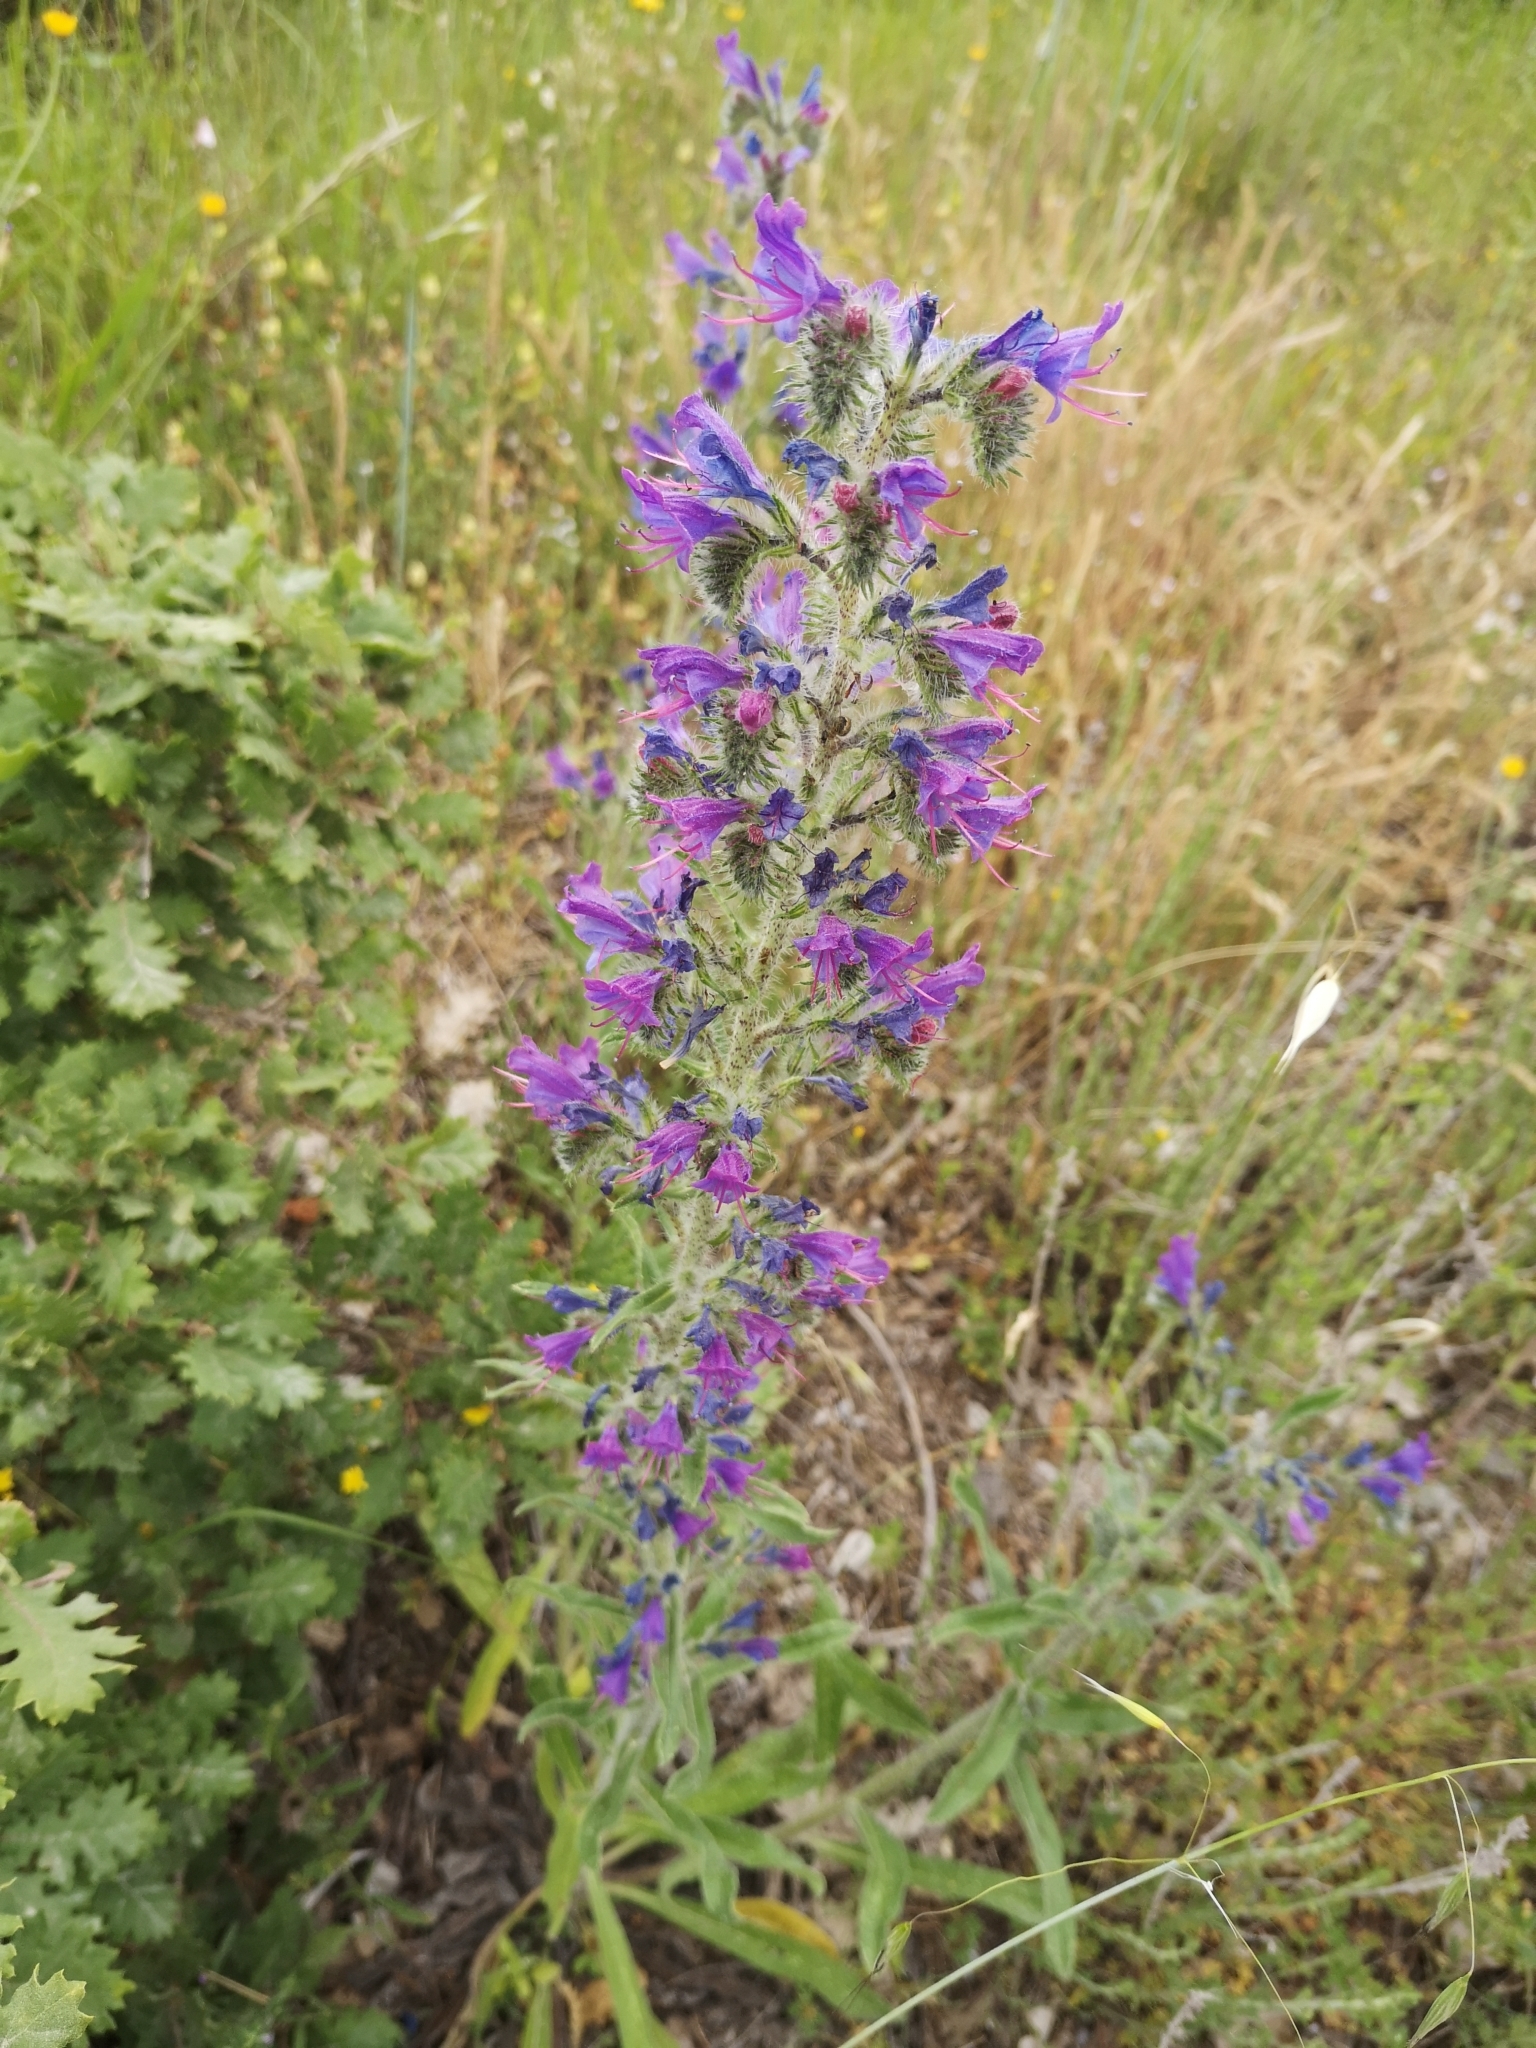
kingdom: Plantae
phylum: Tracheophyta
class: Magnoliopsida
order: Boraginales
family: Boraginaceae
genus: Echium
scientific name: Echium vulgare
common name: Common viper's bugloss
